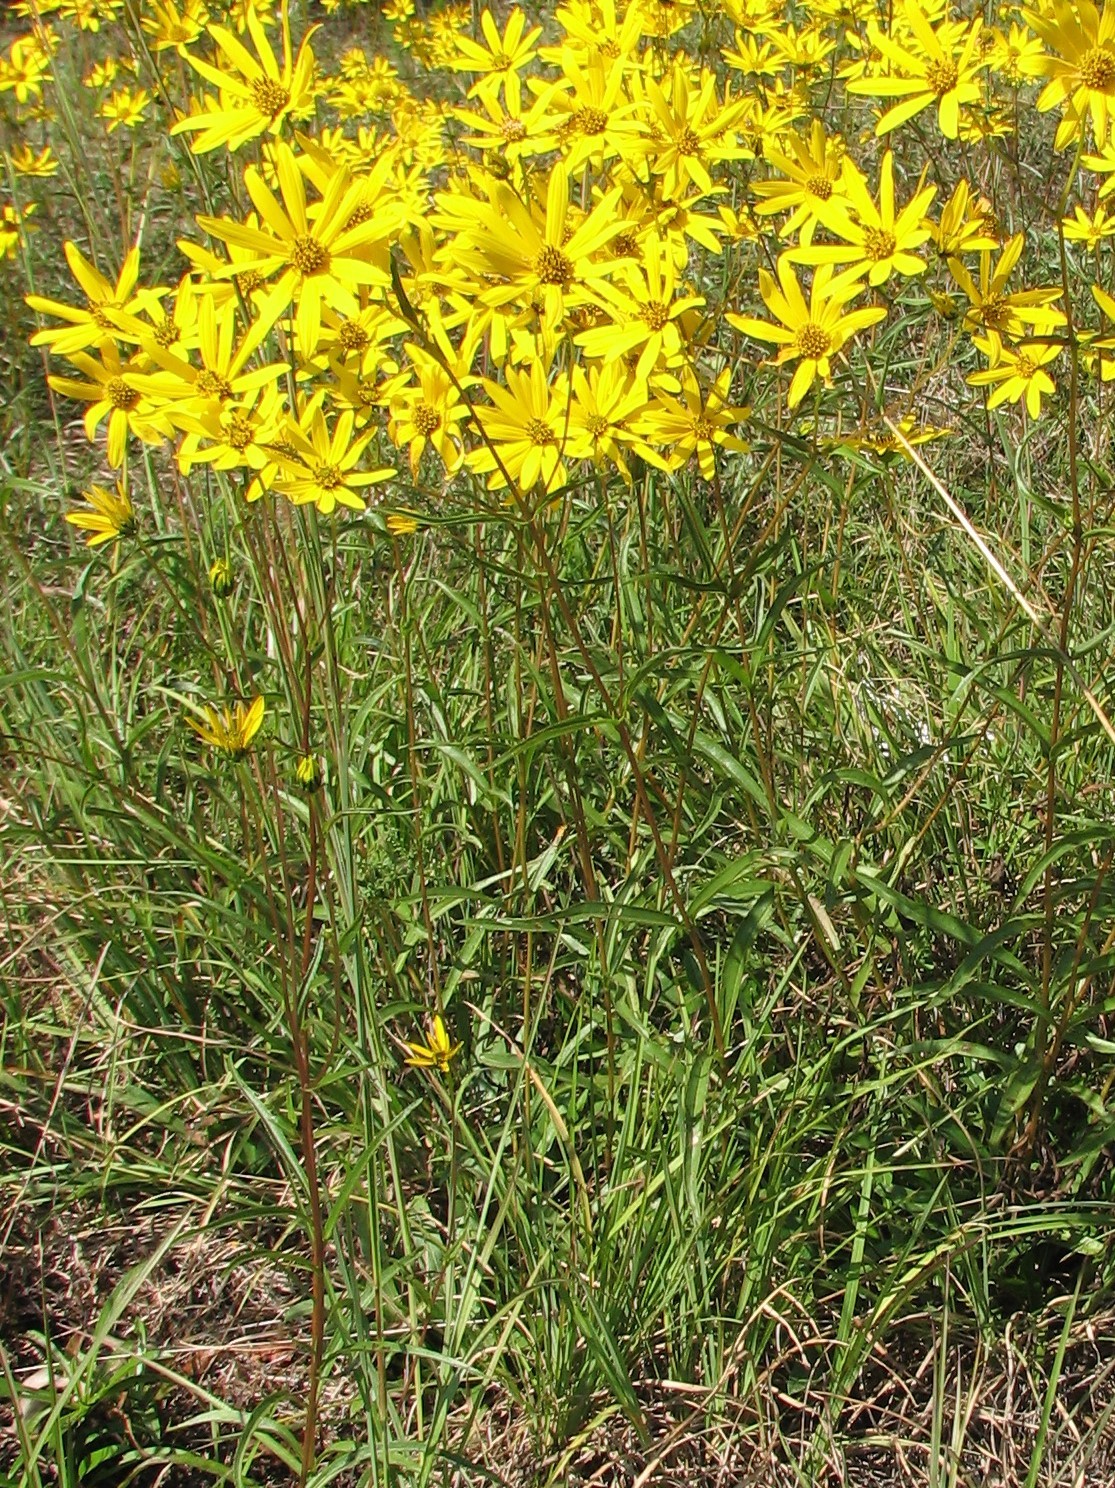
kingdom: Plantae
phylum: Tracheophyta
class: Magnoliopsida
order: Asterales
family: Asteraceae
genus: Helianthus
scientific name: Helianthus smithii
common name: Smith's sunflower
